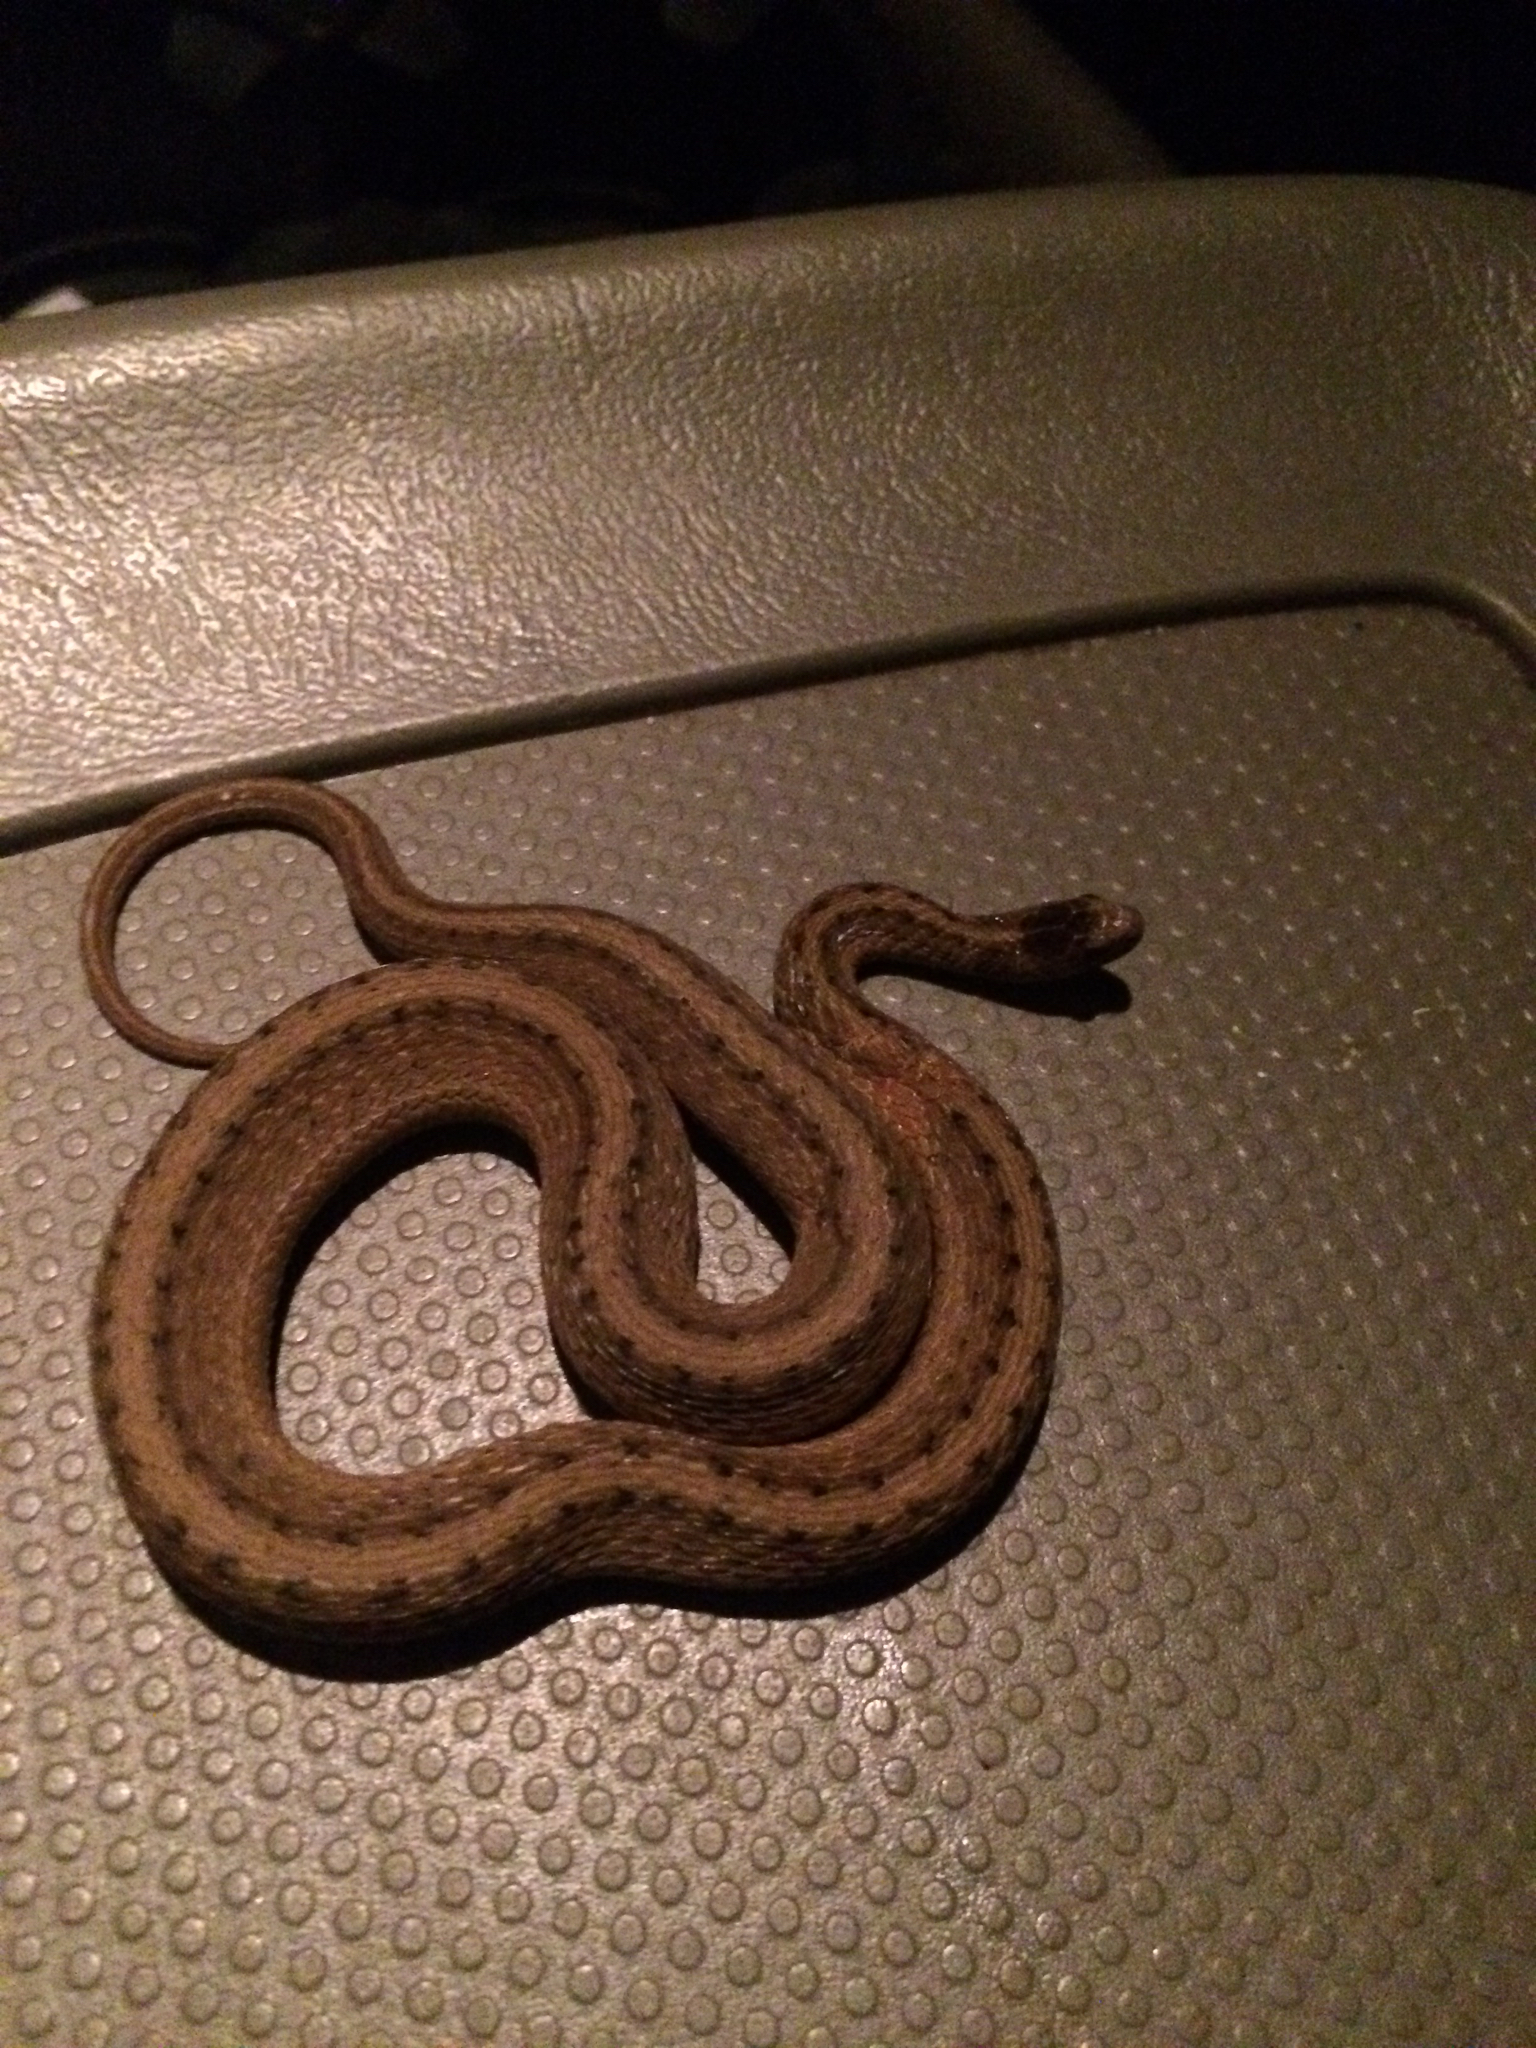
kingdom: Animalia
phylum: Chordata
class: Squamata
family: Colubridae
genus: Storeria
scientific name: Storeria dekayi
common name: (dekay’s) brown snake
